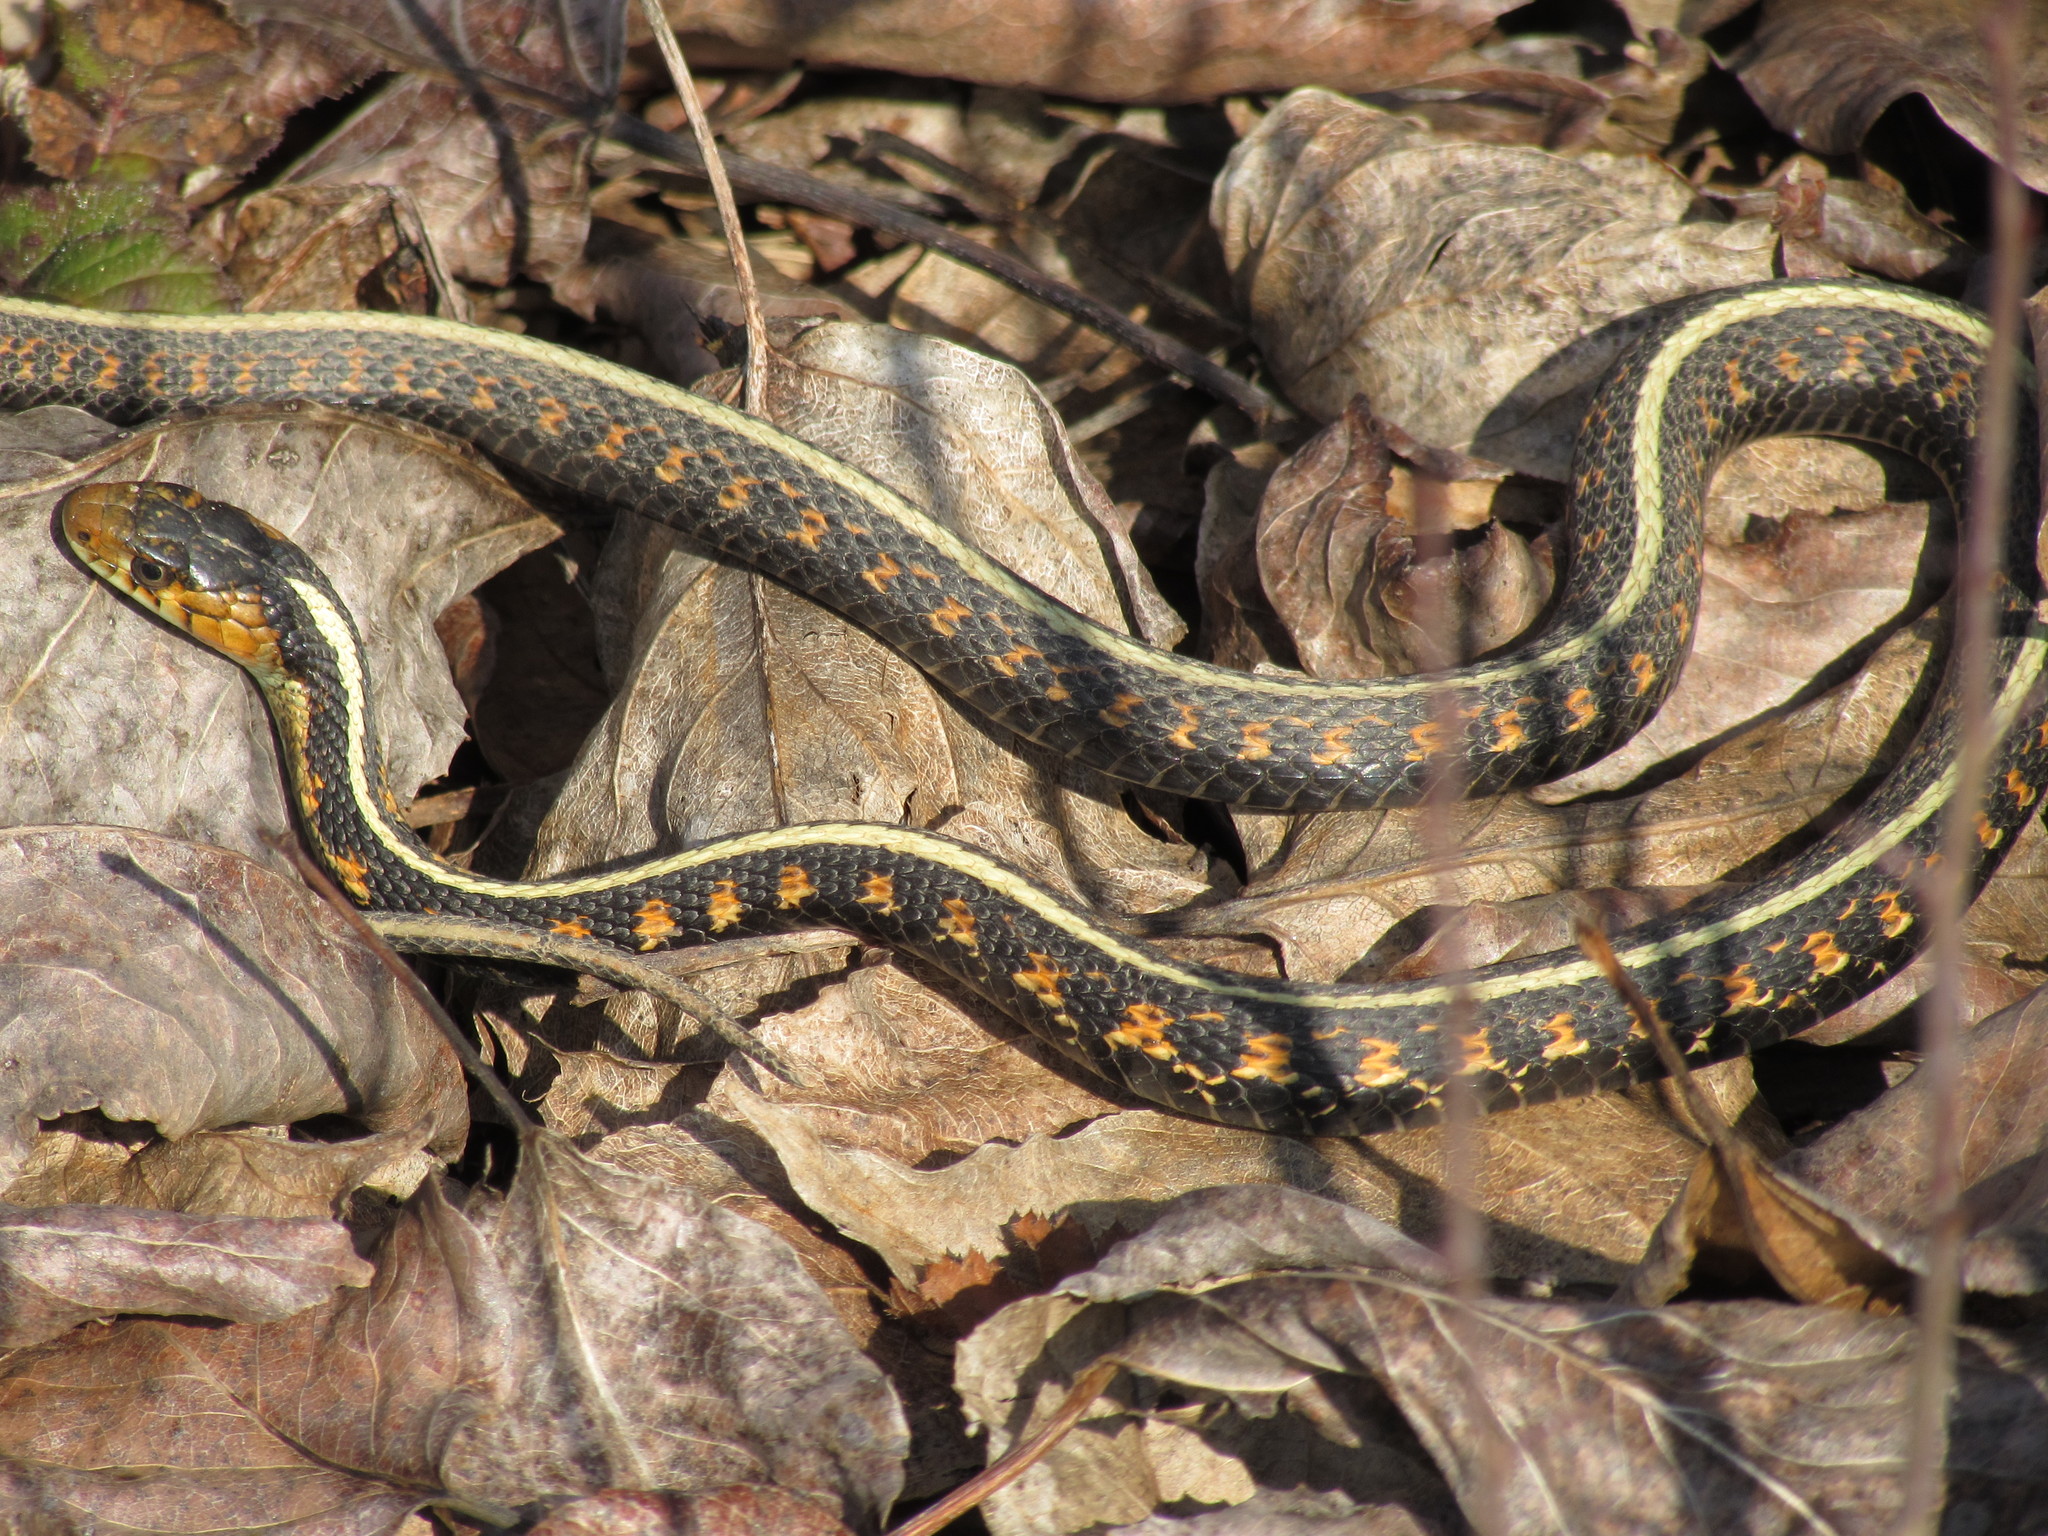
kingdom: Animalia
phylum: Chordata
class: Squamata
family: Colubridae
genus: Thamnophis
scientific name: Thamnophis sirtalis
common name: Common garter snake
